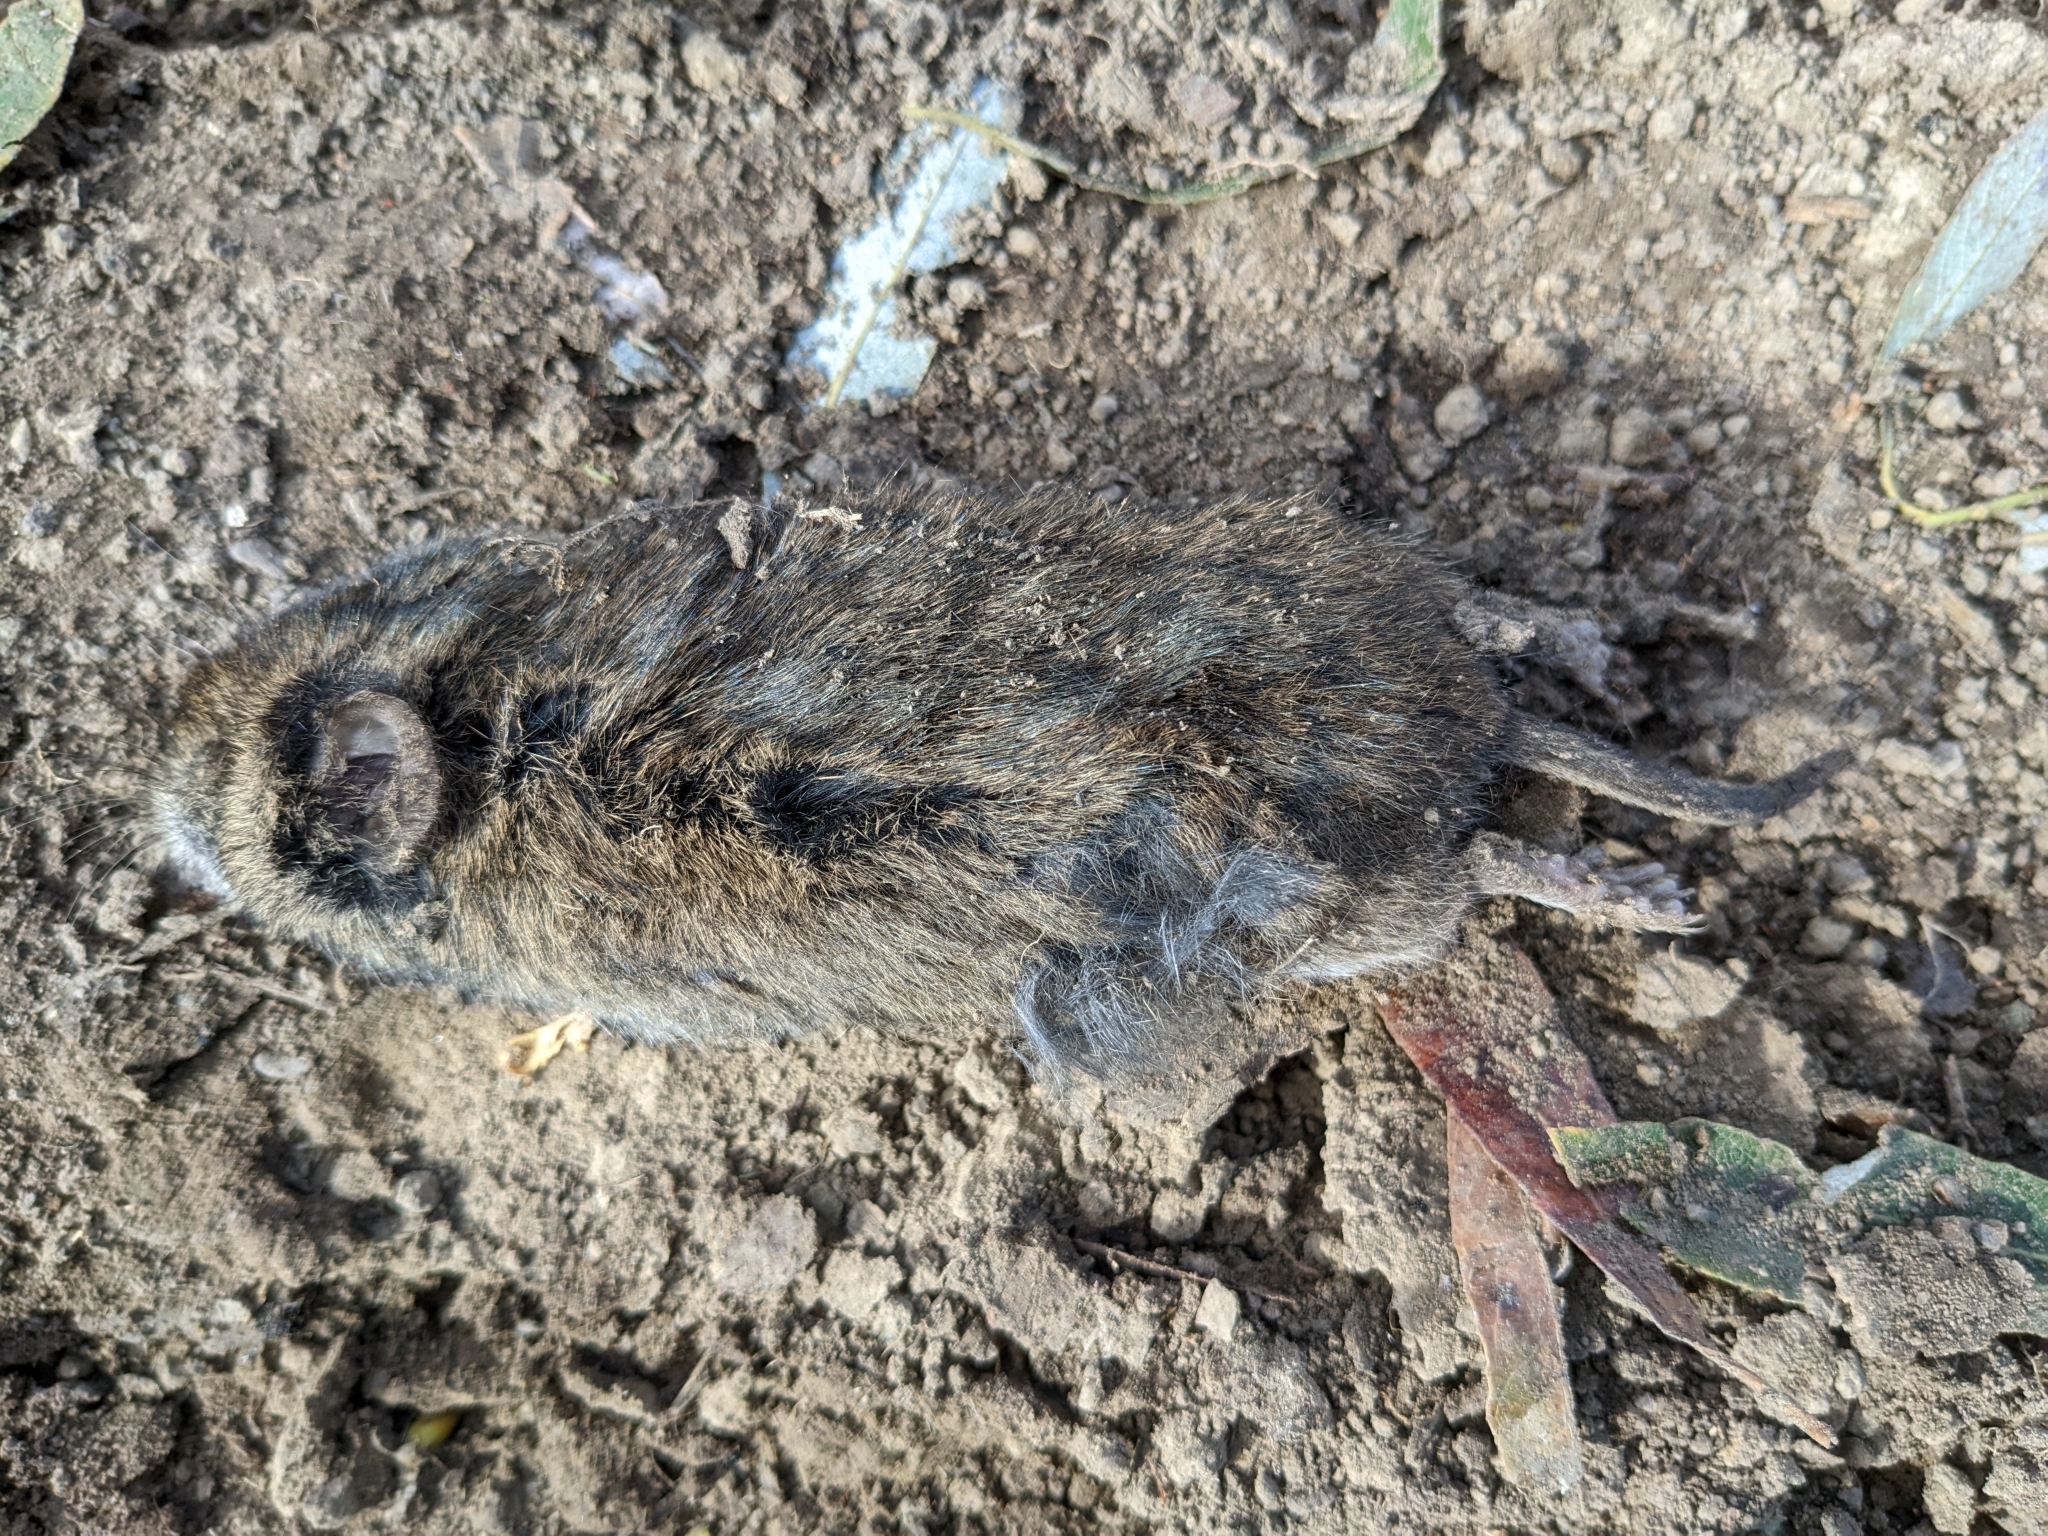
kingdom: Animalia
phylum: Chordata
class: Mammalia
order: Rodentia
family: Cricetidae
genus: Microtus
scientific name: Microtus californicus
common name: California vole
